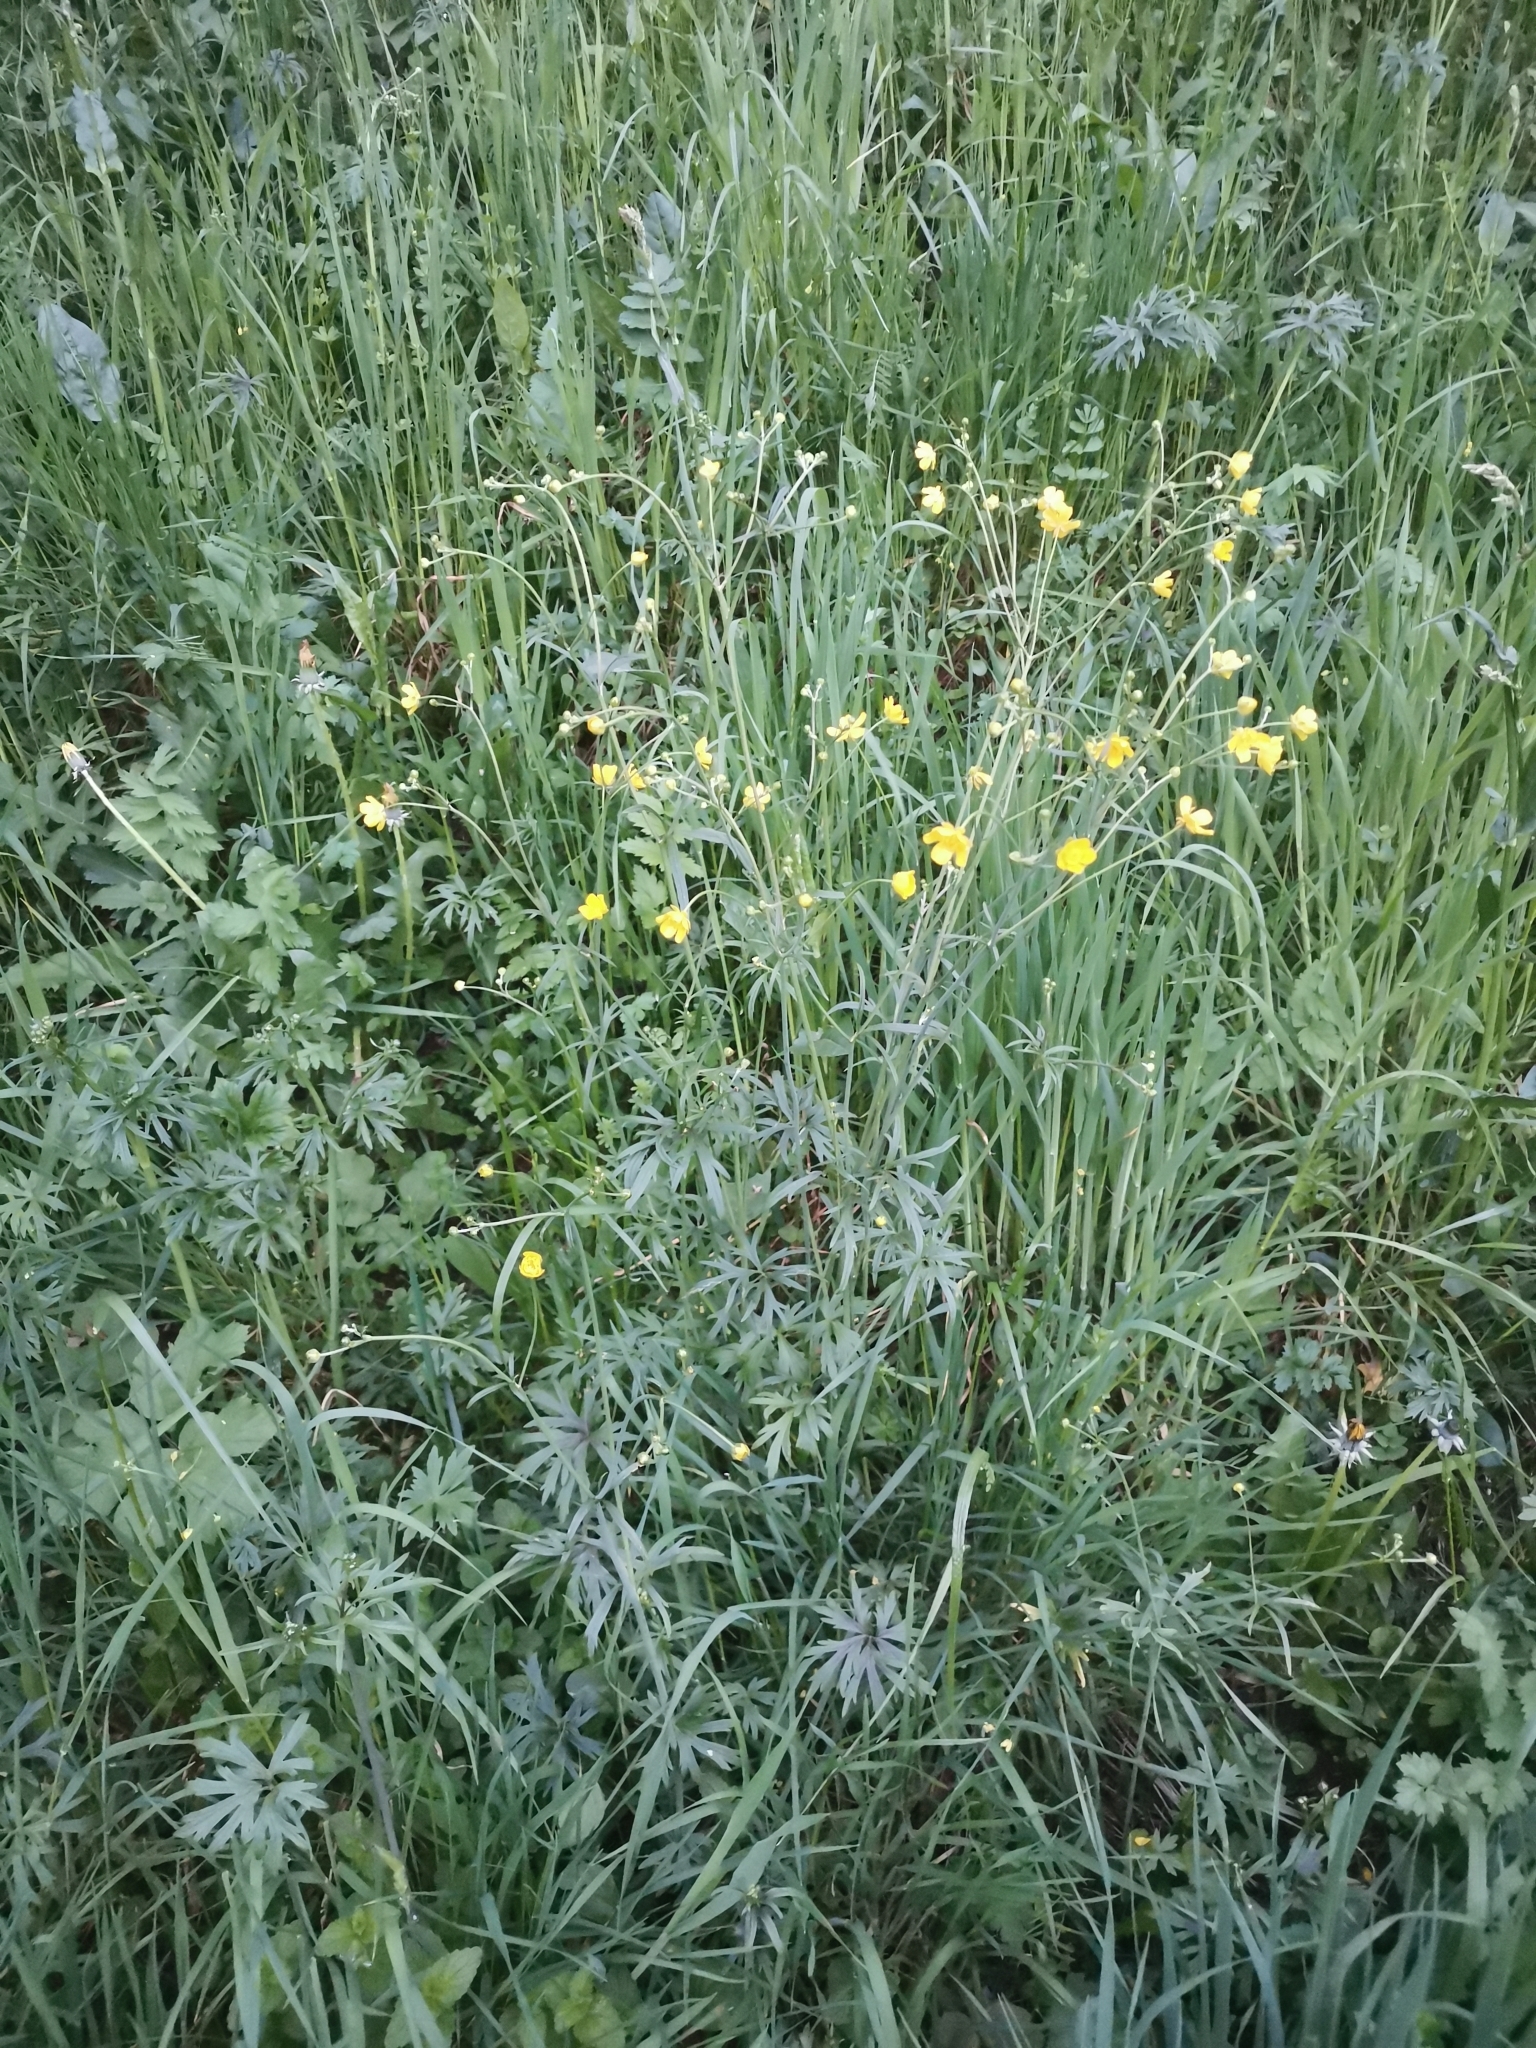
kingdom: Plantae
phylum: Tracheophyta
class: Magnoliopsida
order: Ranunculales
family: Ranunculaceae
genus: Ranunculus
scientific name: Ranunculus acris
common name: Meadow buttercup
